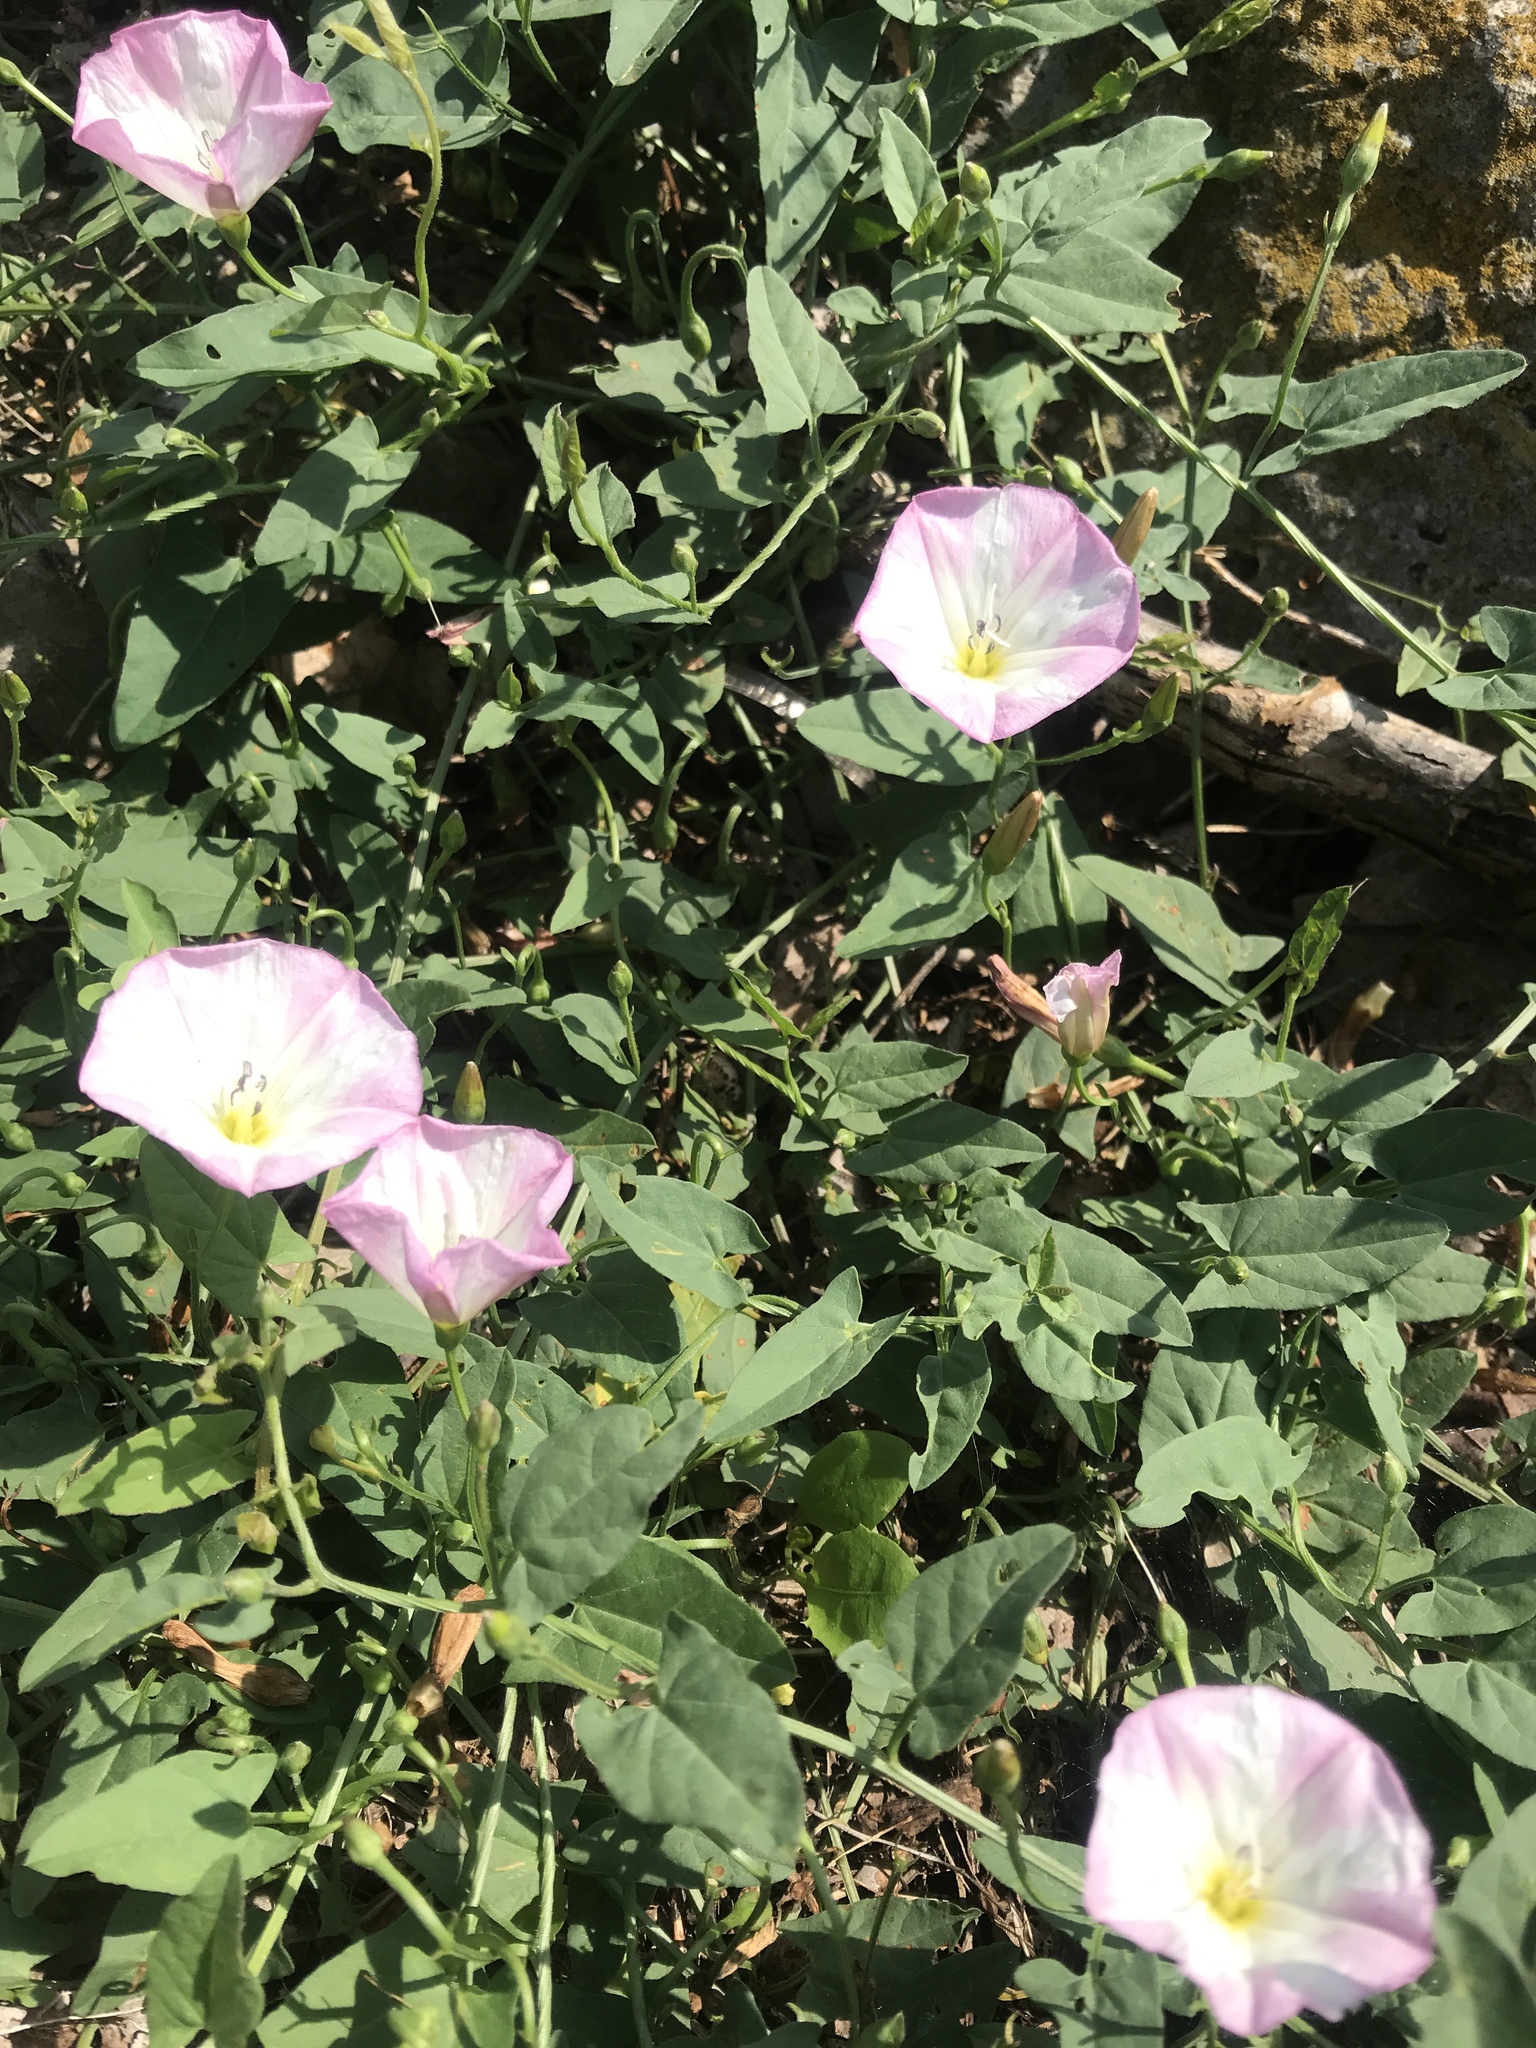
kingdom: Plantae
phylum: Tracheophyta
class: Magnoliopsida
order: Solanales
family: Convolvulaceae
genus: Convolvulus
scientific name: Convolvulus arvensis
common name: Field bindweed
